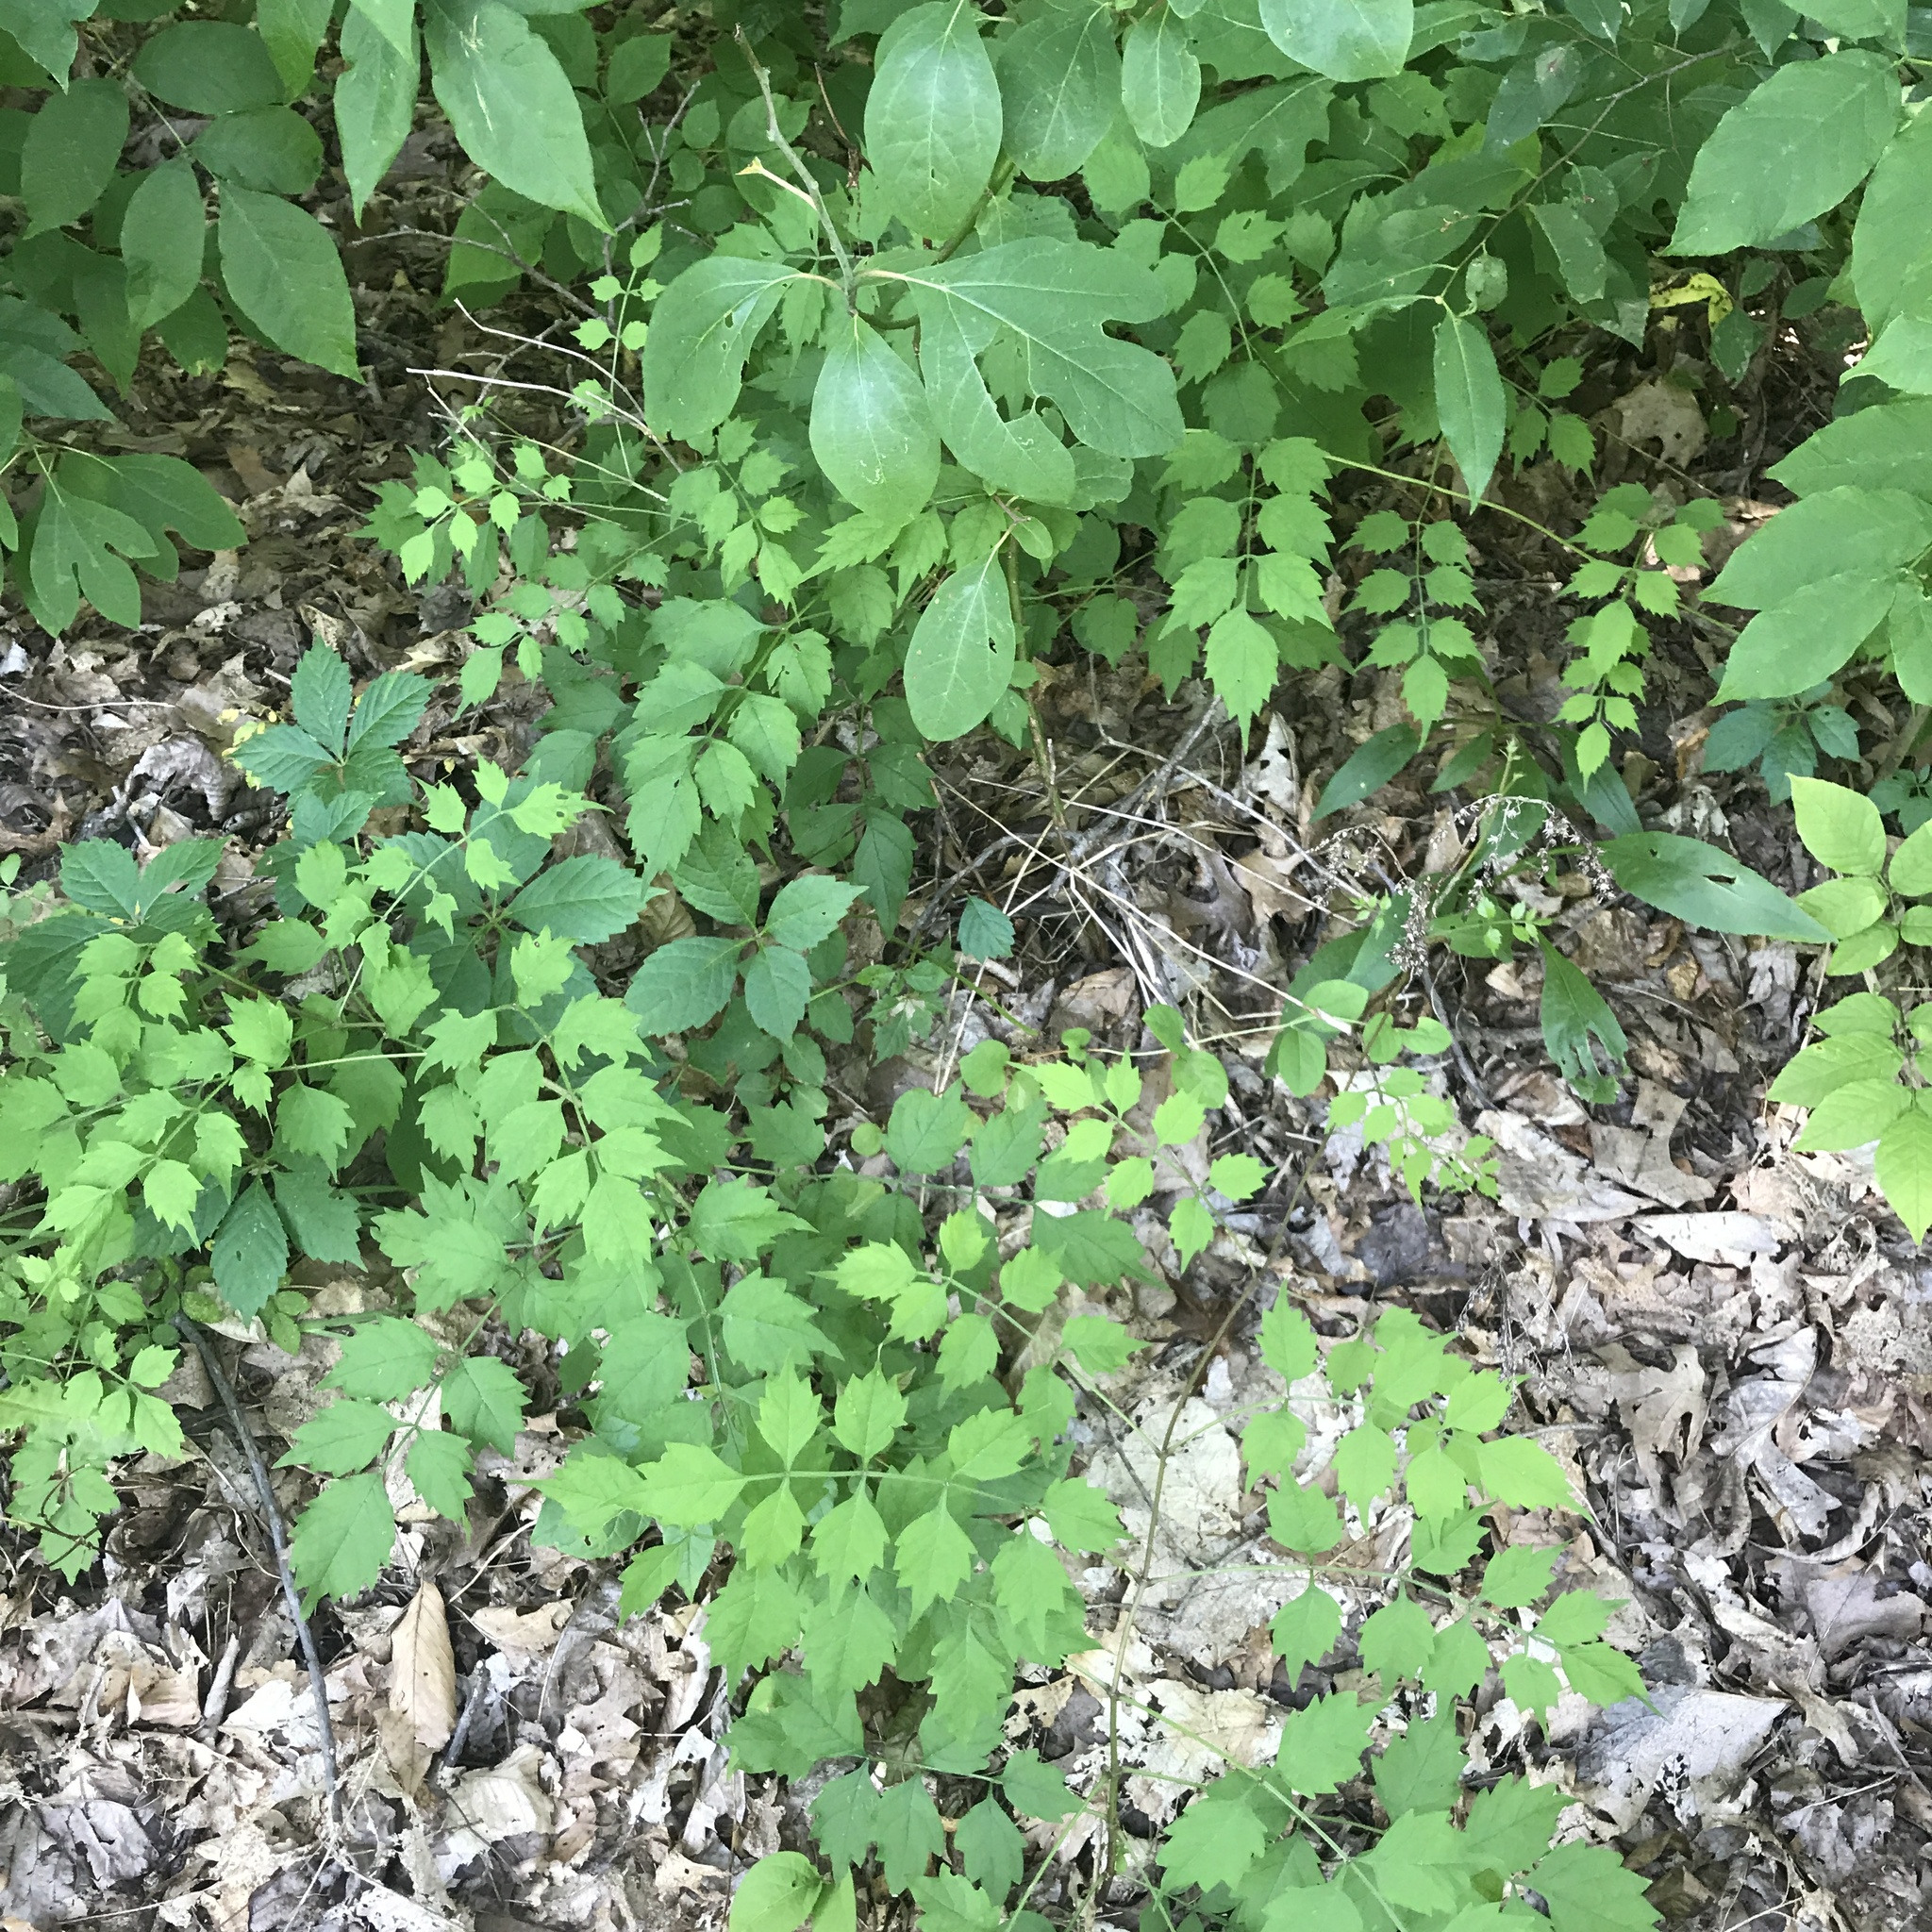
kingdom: Plantae
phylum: Tracheophyta
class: Magnoliopsida
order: Lamiales
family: Bignoniaceae
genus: Campsis
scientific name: Campsis radicans
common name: Trumpet-creeper
